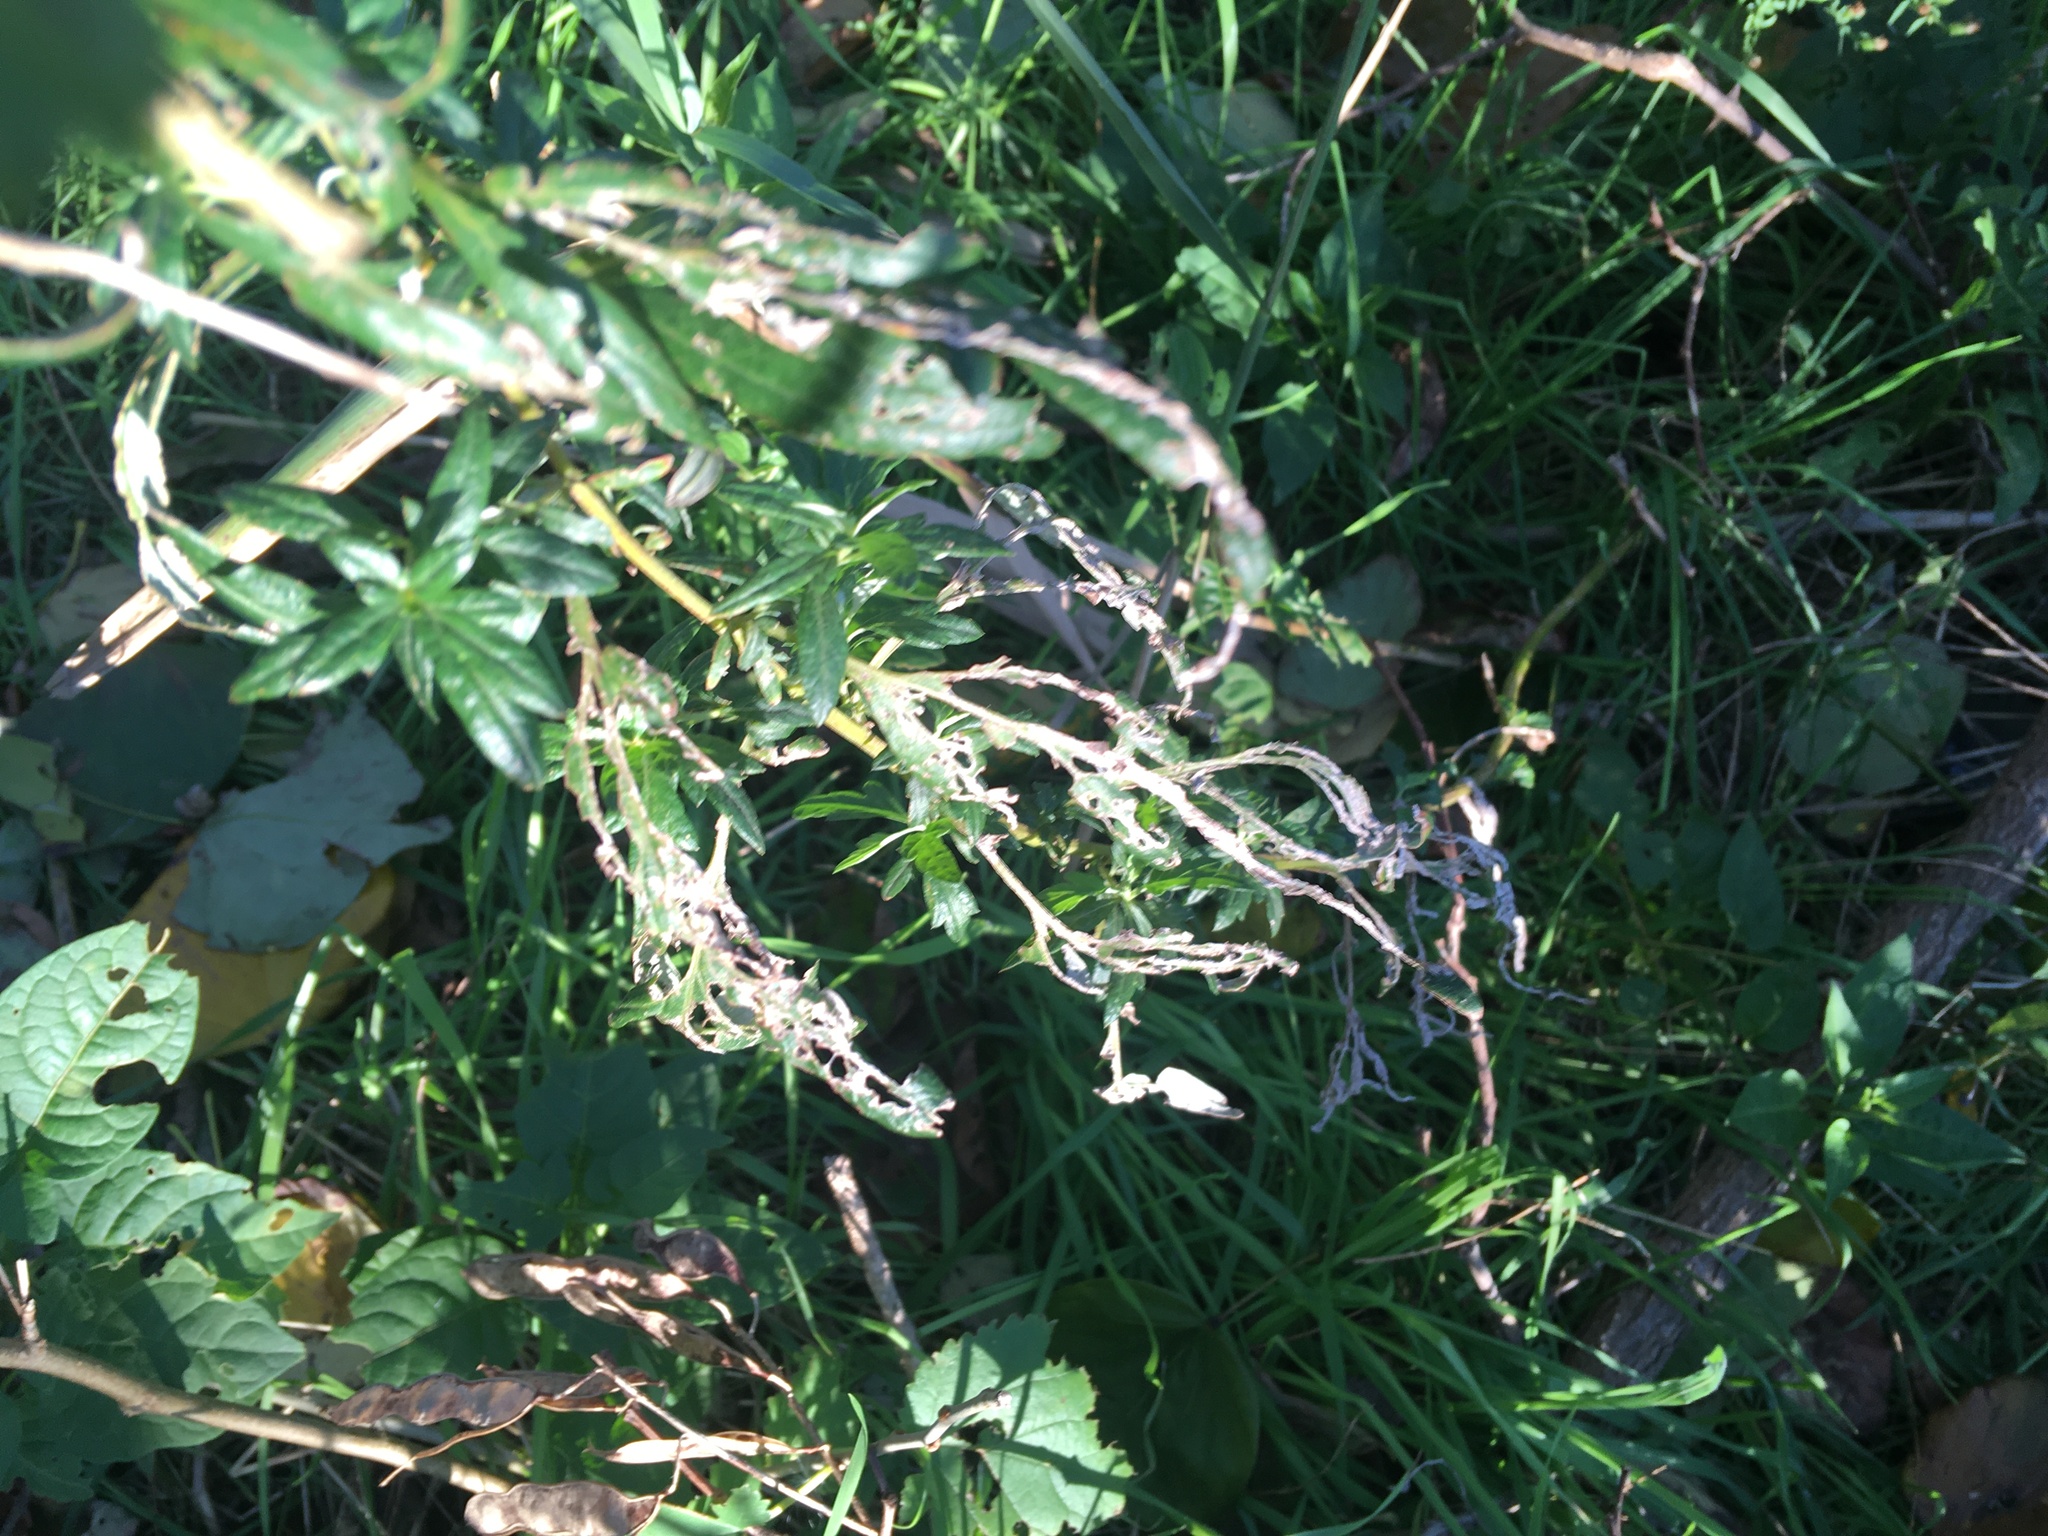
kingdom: Plantae
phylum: Tracheophyta
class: Magnoliopsida
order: Asterales
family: Asteraceae
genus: Artemisia
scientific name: Artemisia vulgaris
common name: Mugwort
